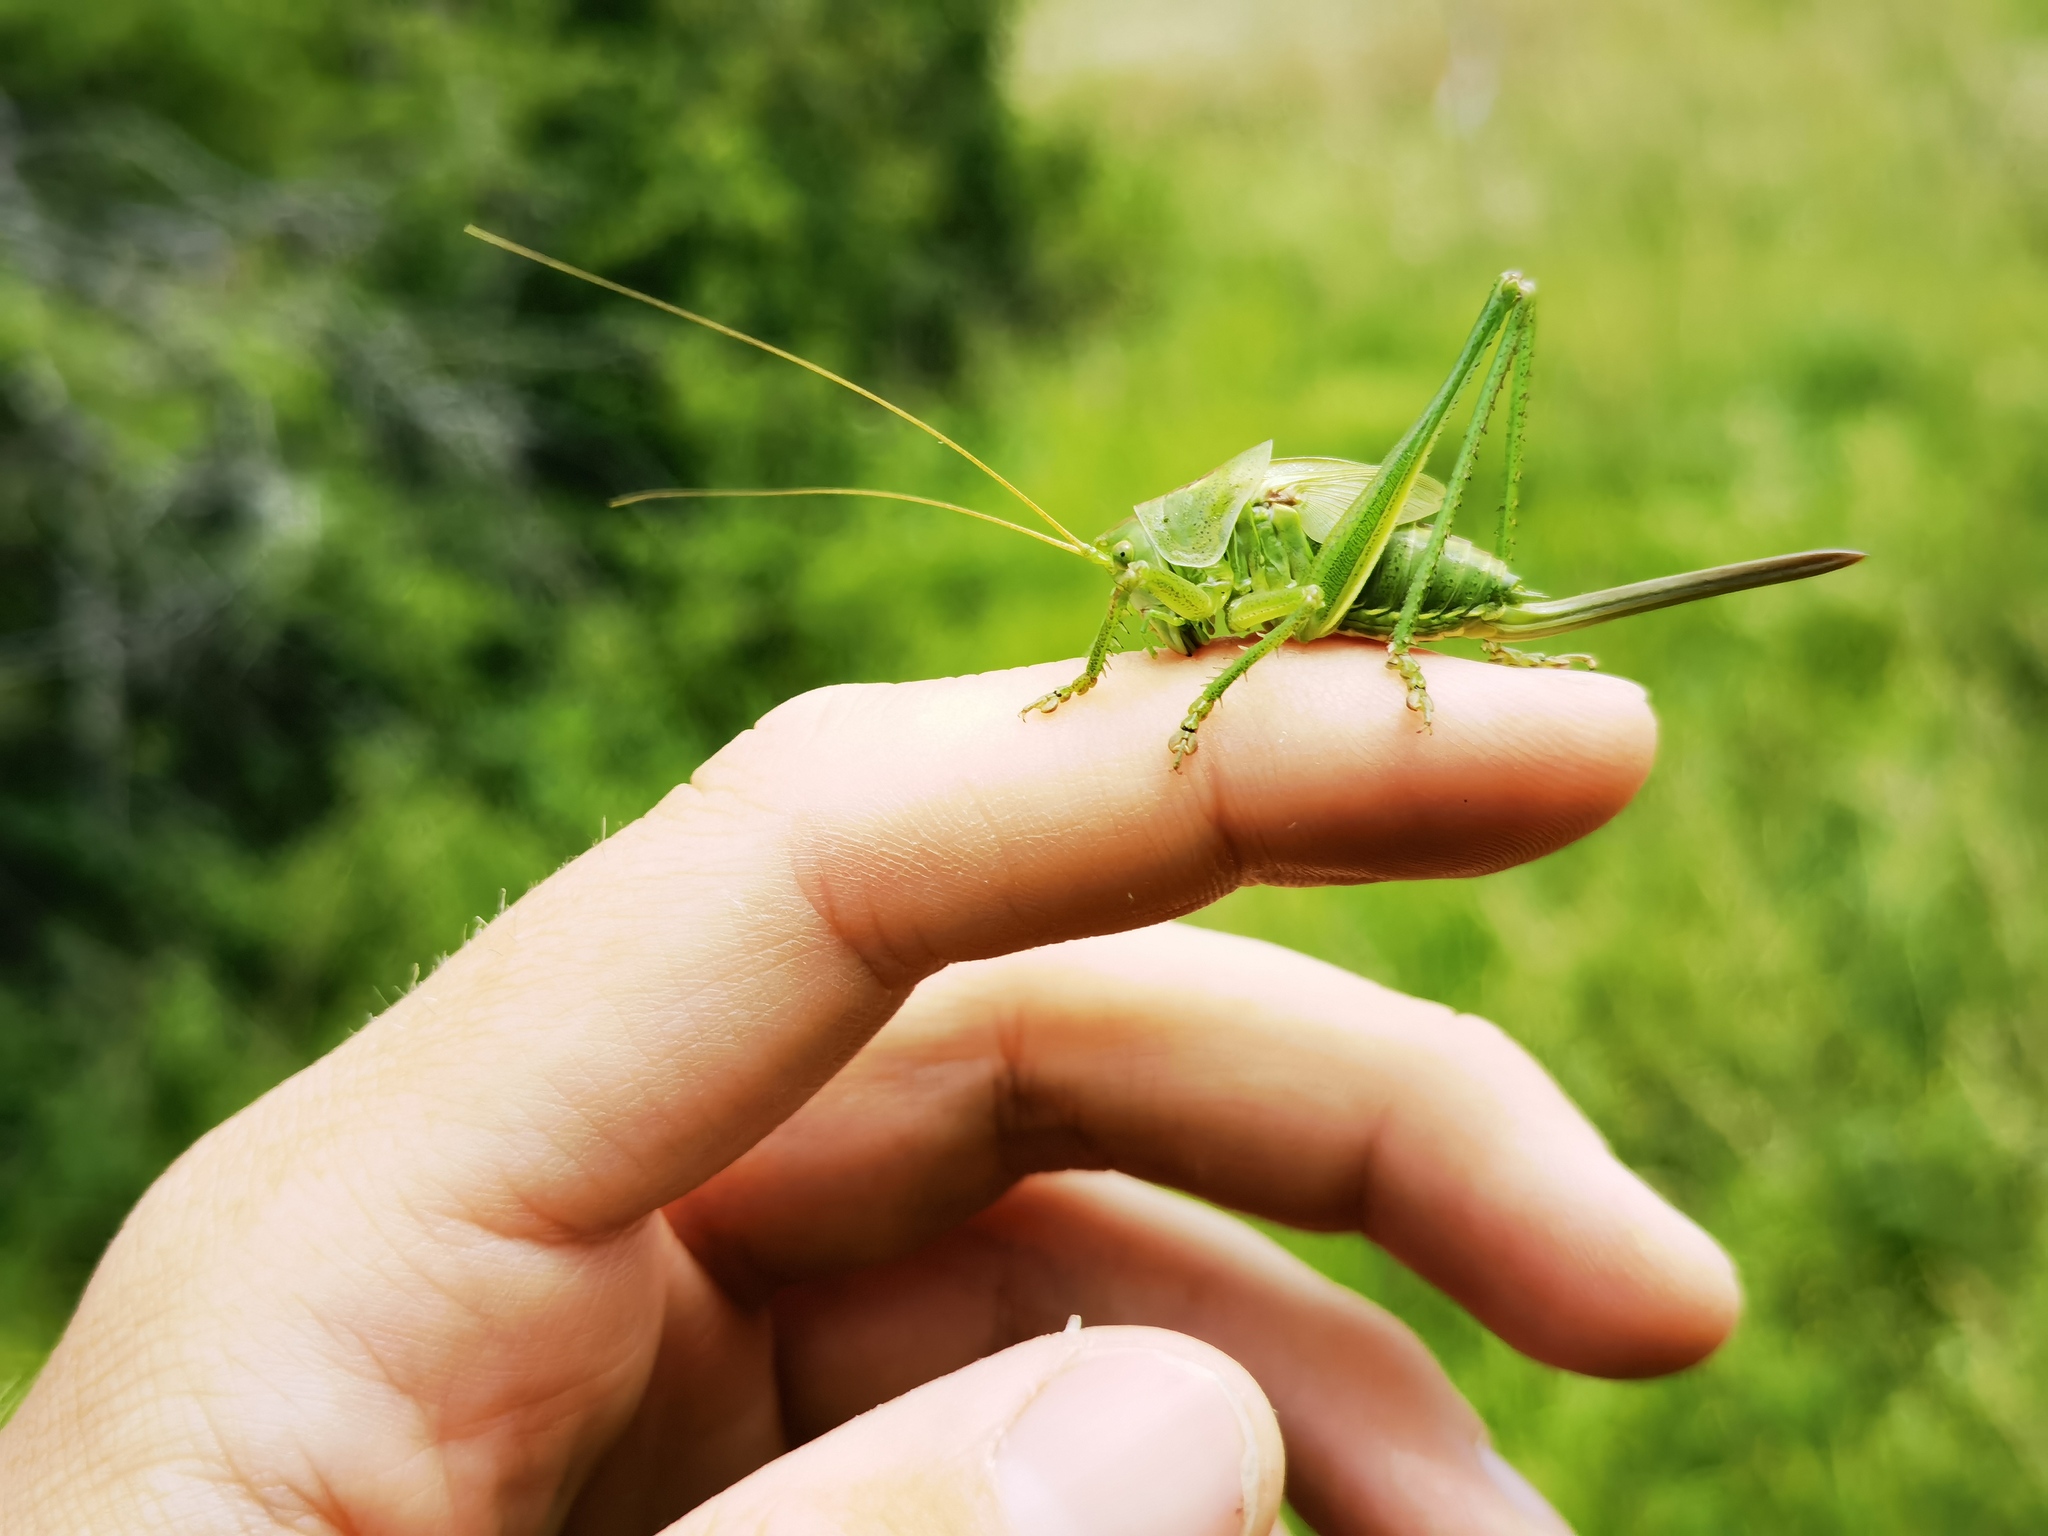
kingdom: Animalia
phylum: Arthropoda
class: Insecta
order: Orthoptera
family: Tettigoniidae
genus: Tettigonia
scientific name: Tettigonia viridissima
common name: Great green bush-cricket
